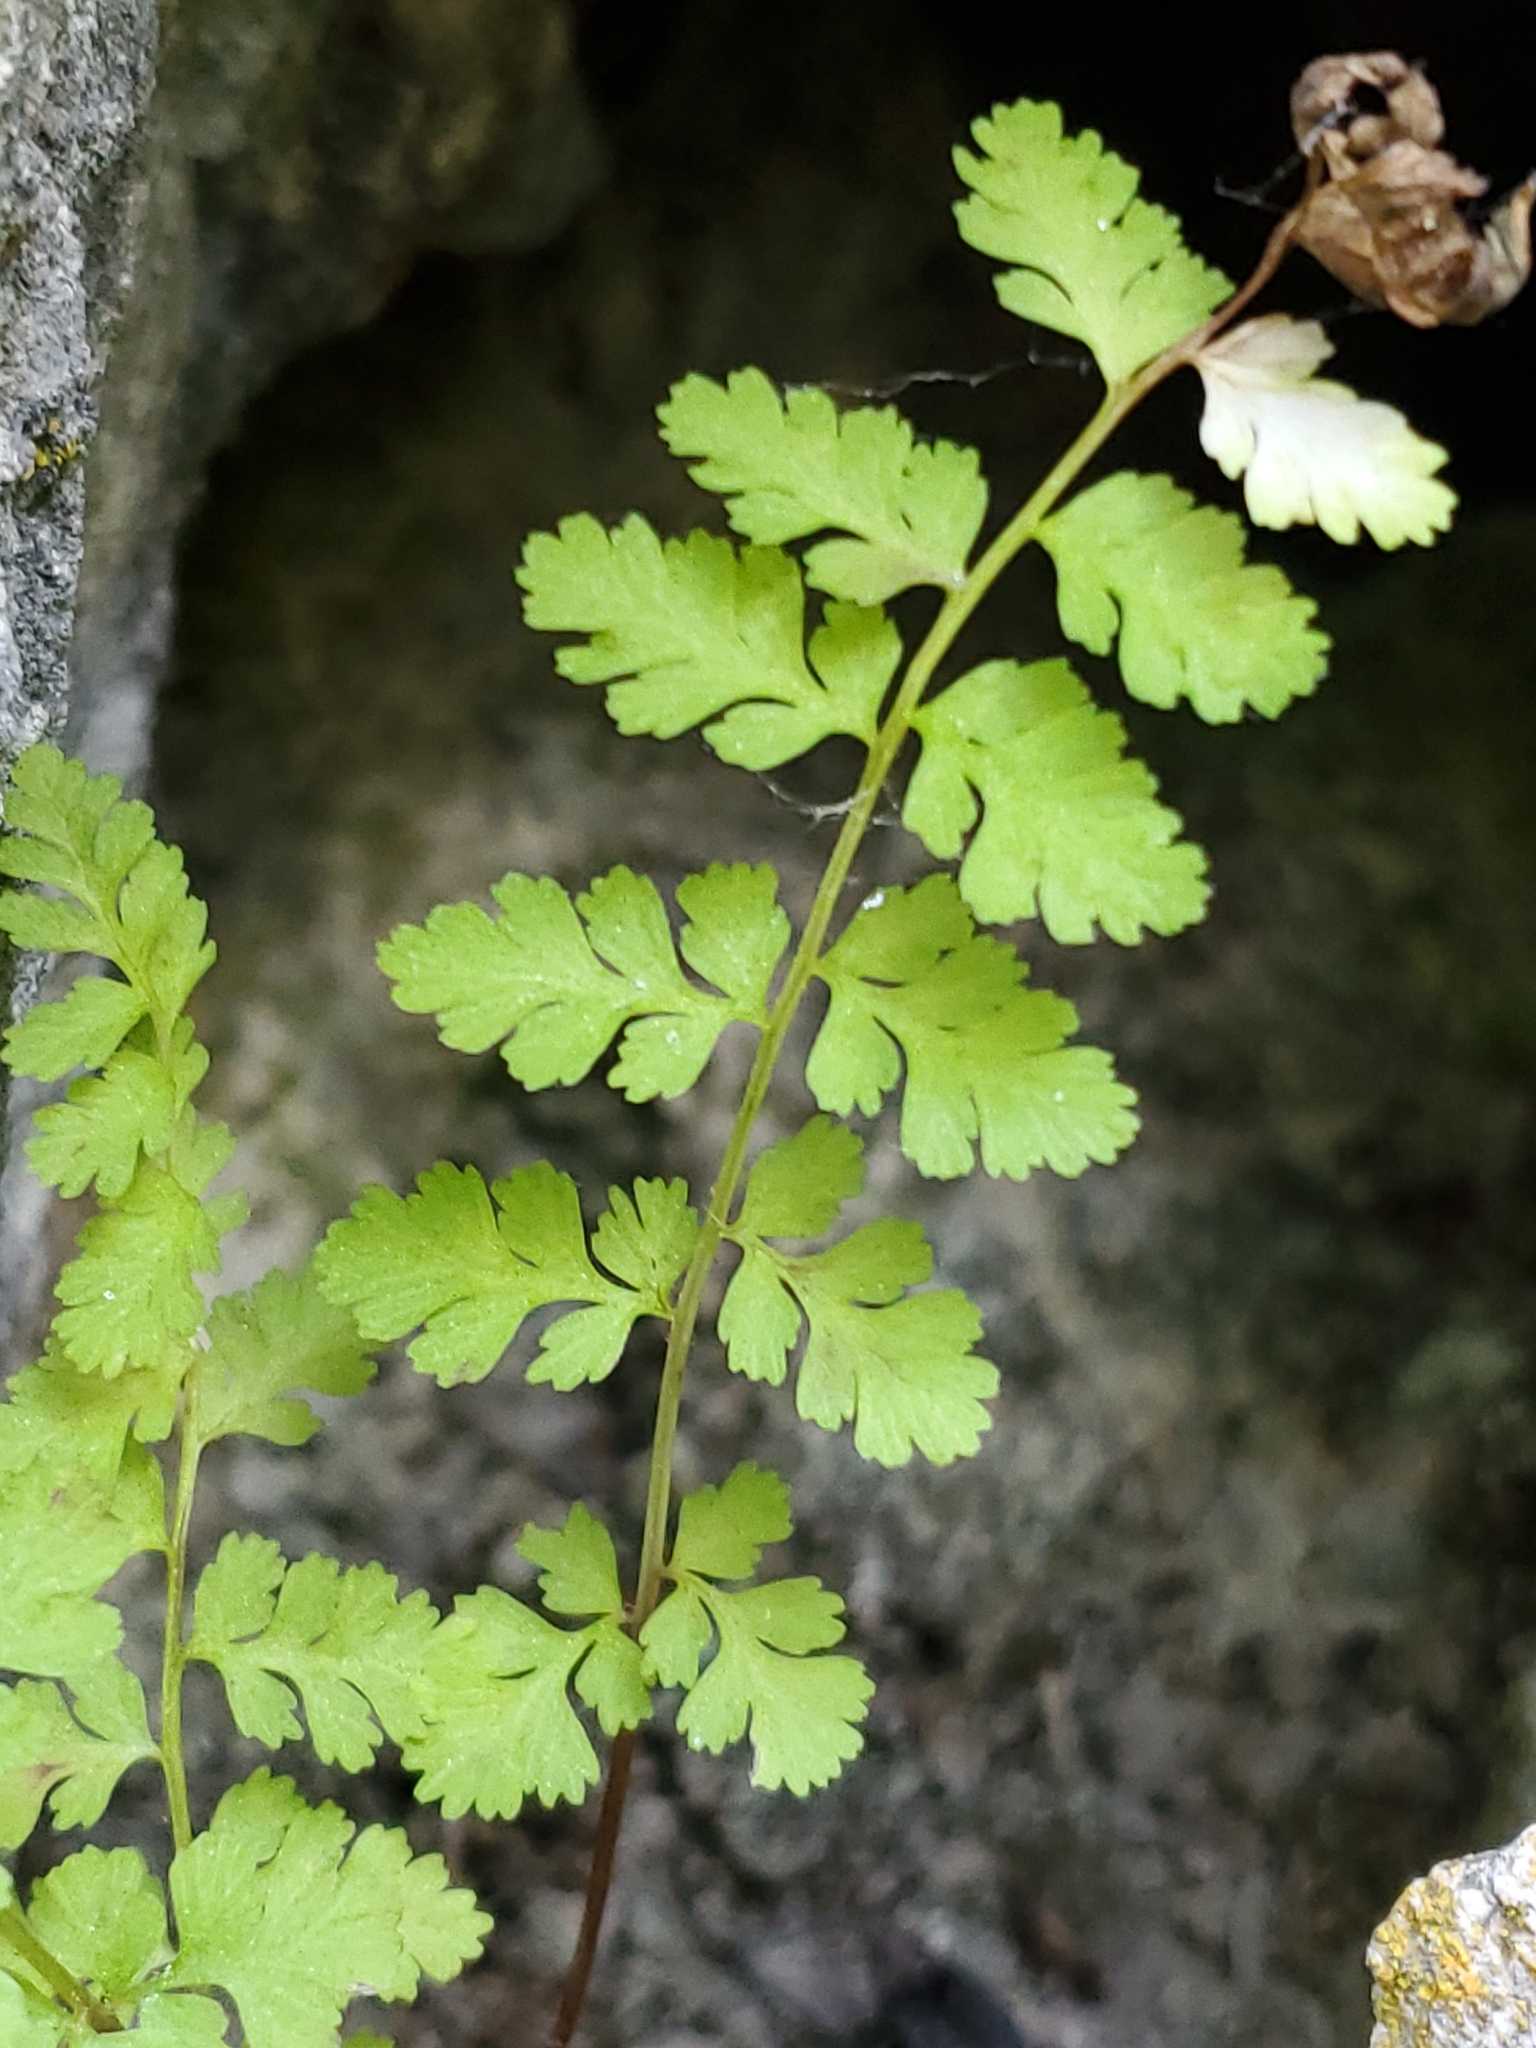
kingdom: Plantae
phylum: Tracheophyta
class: Polypodiopsida
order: Polypodiales
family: Cystopteridaceae
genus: Cystopteris
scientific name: Cystopteris fragilis
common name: Brittle bladder fern
